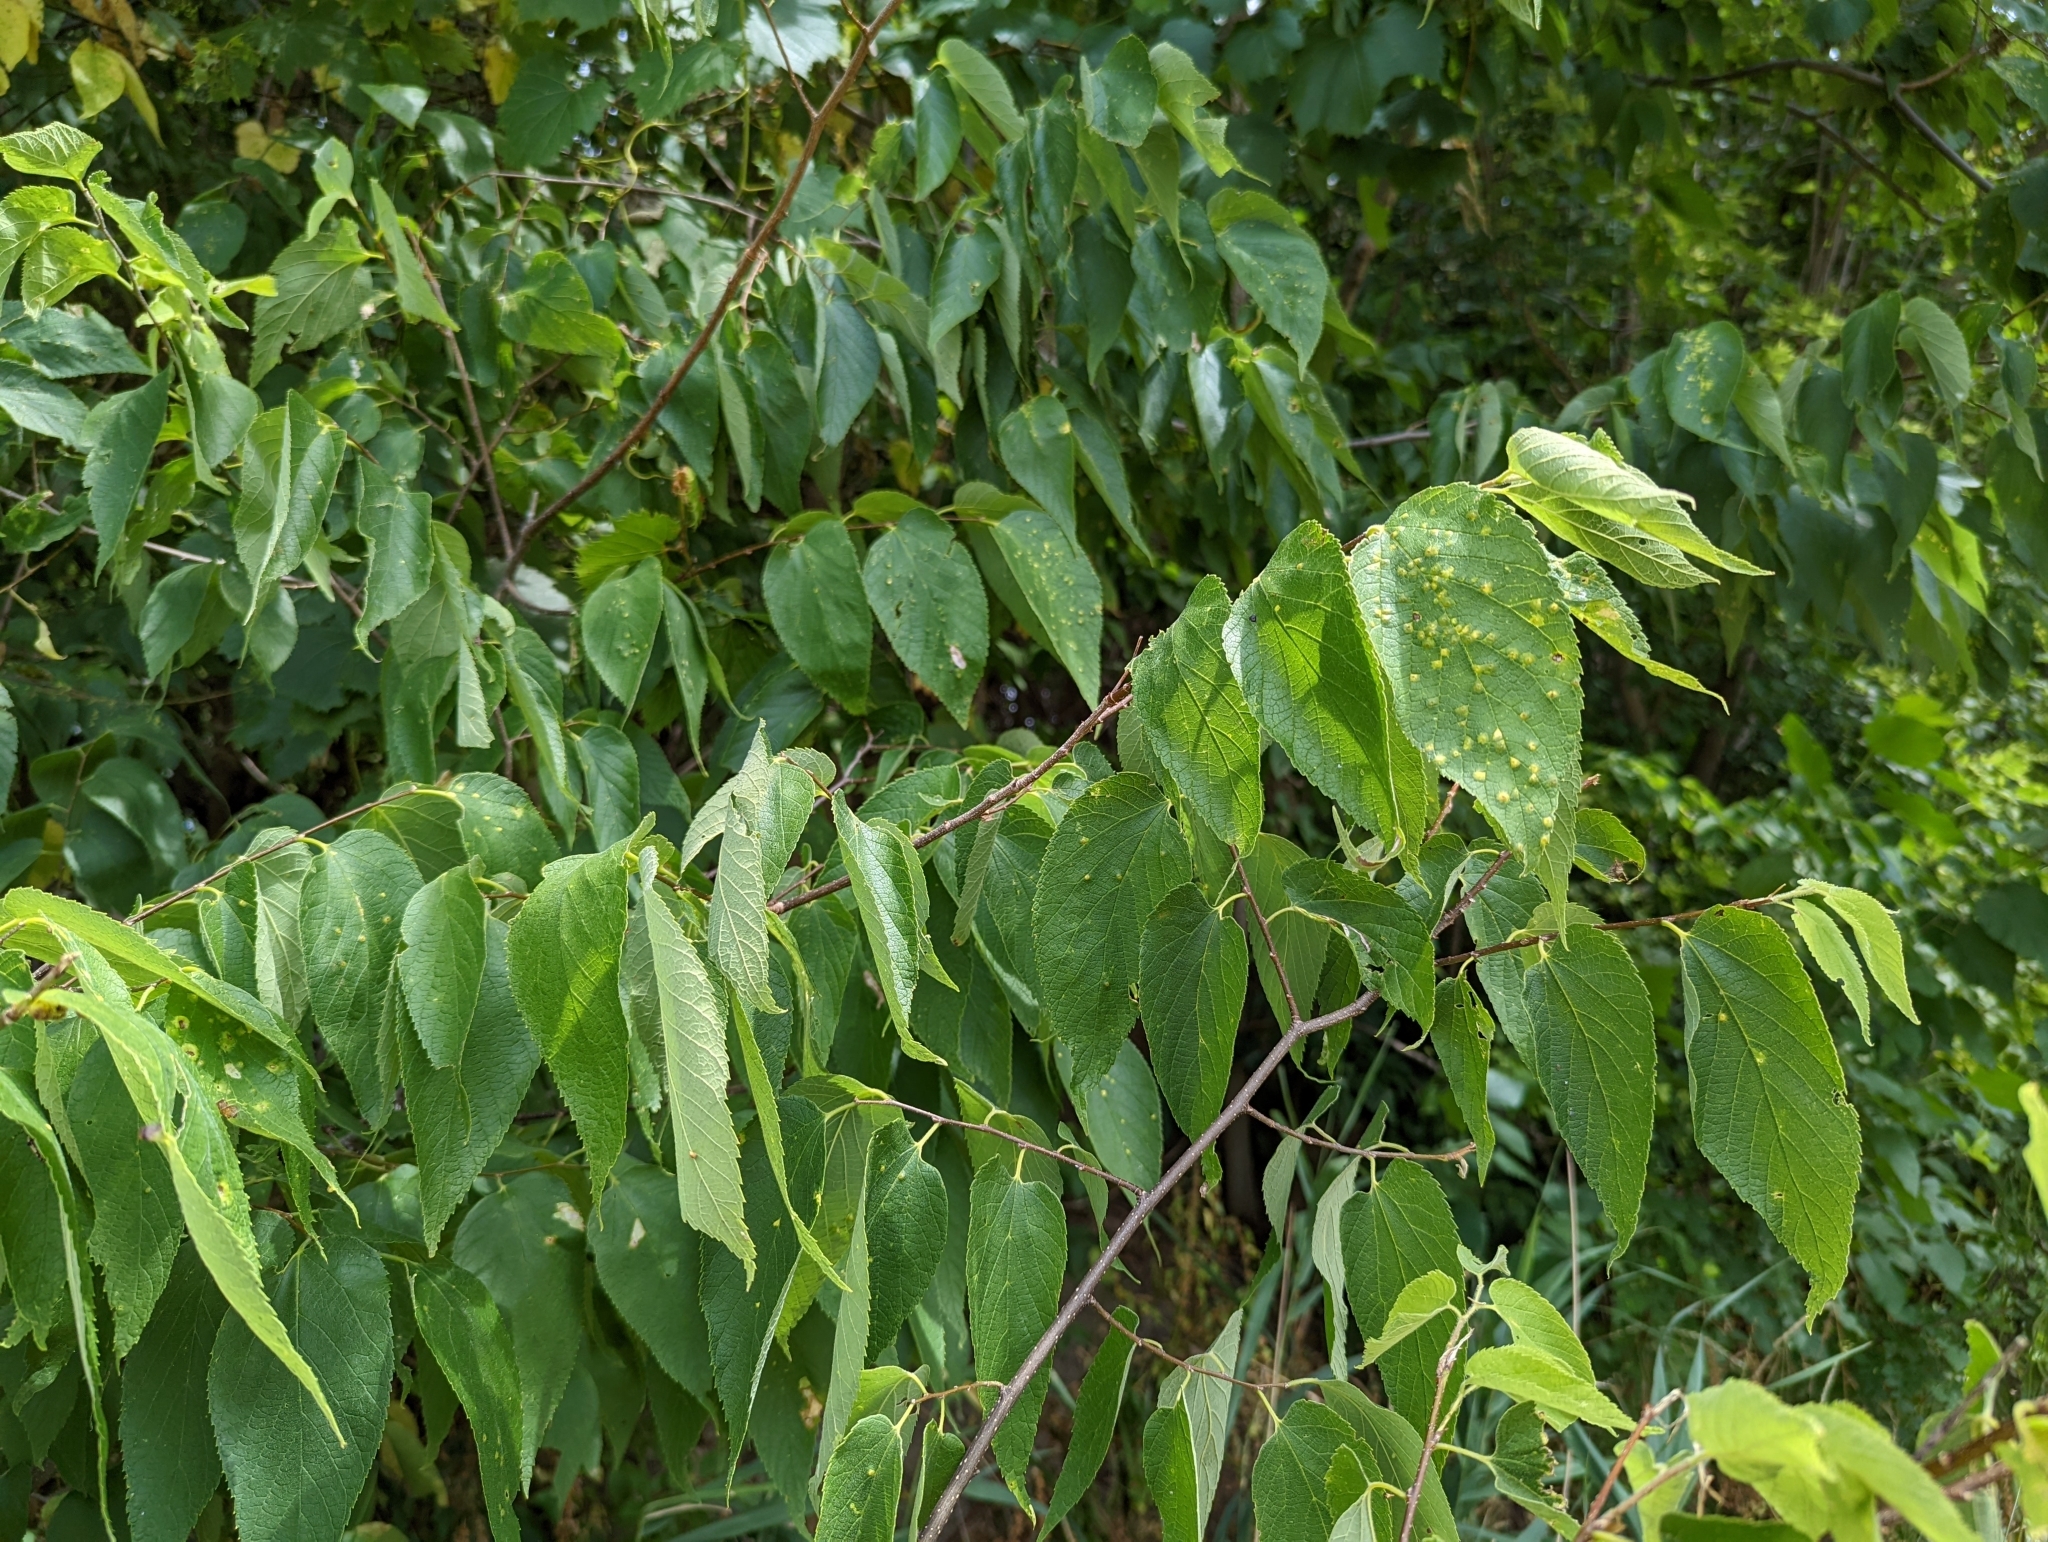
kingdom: Animalia
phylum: Arthropoda
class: Insecta
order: Hemiptera
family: Aphalaridae
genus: Pachypsylla
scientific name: Pachypsylla celtidisvesicula
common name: Hackberry blister gall psyllid
